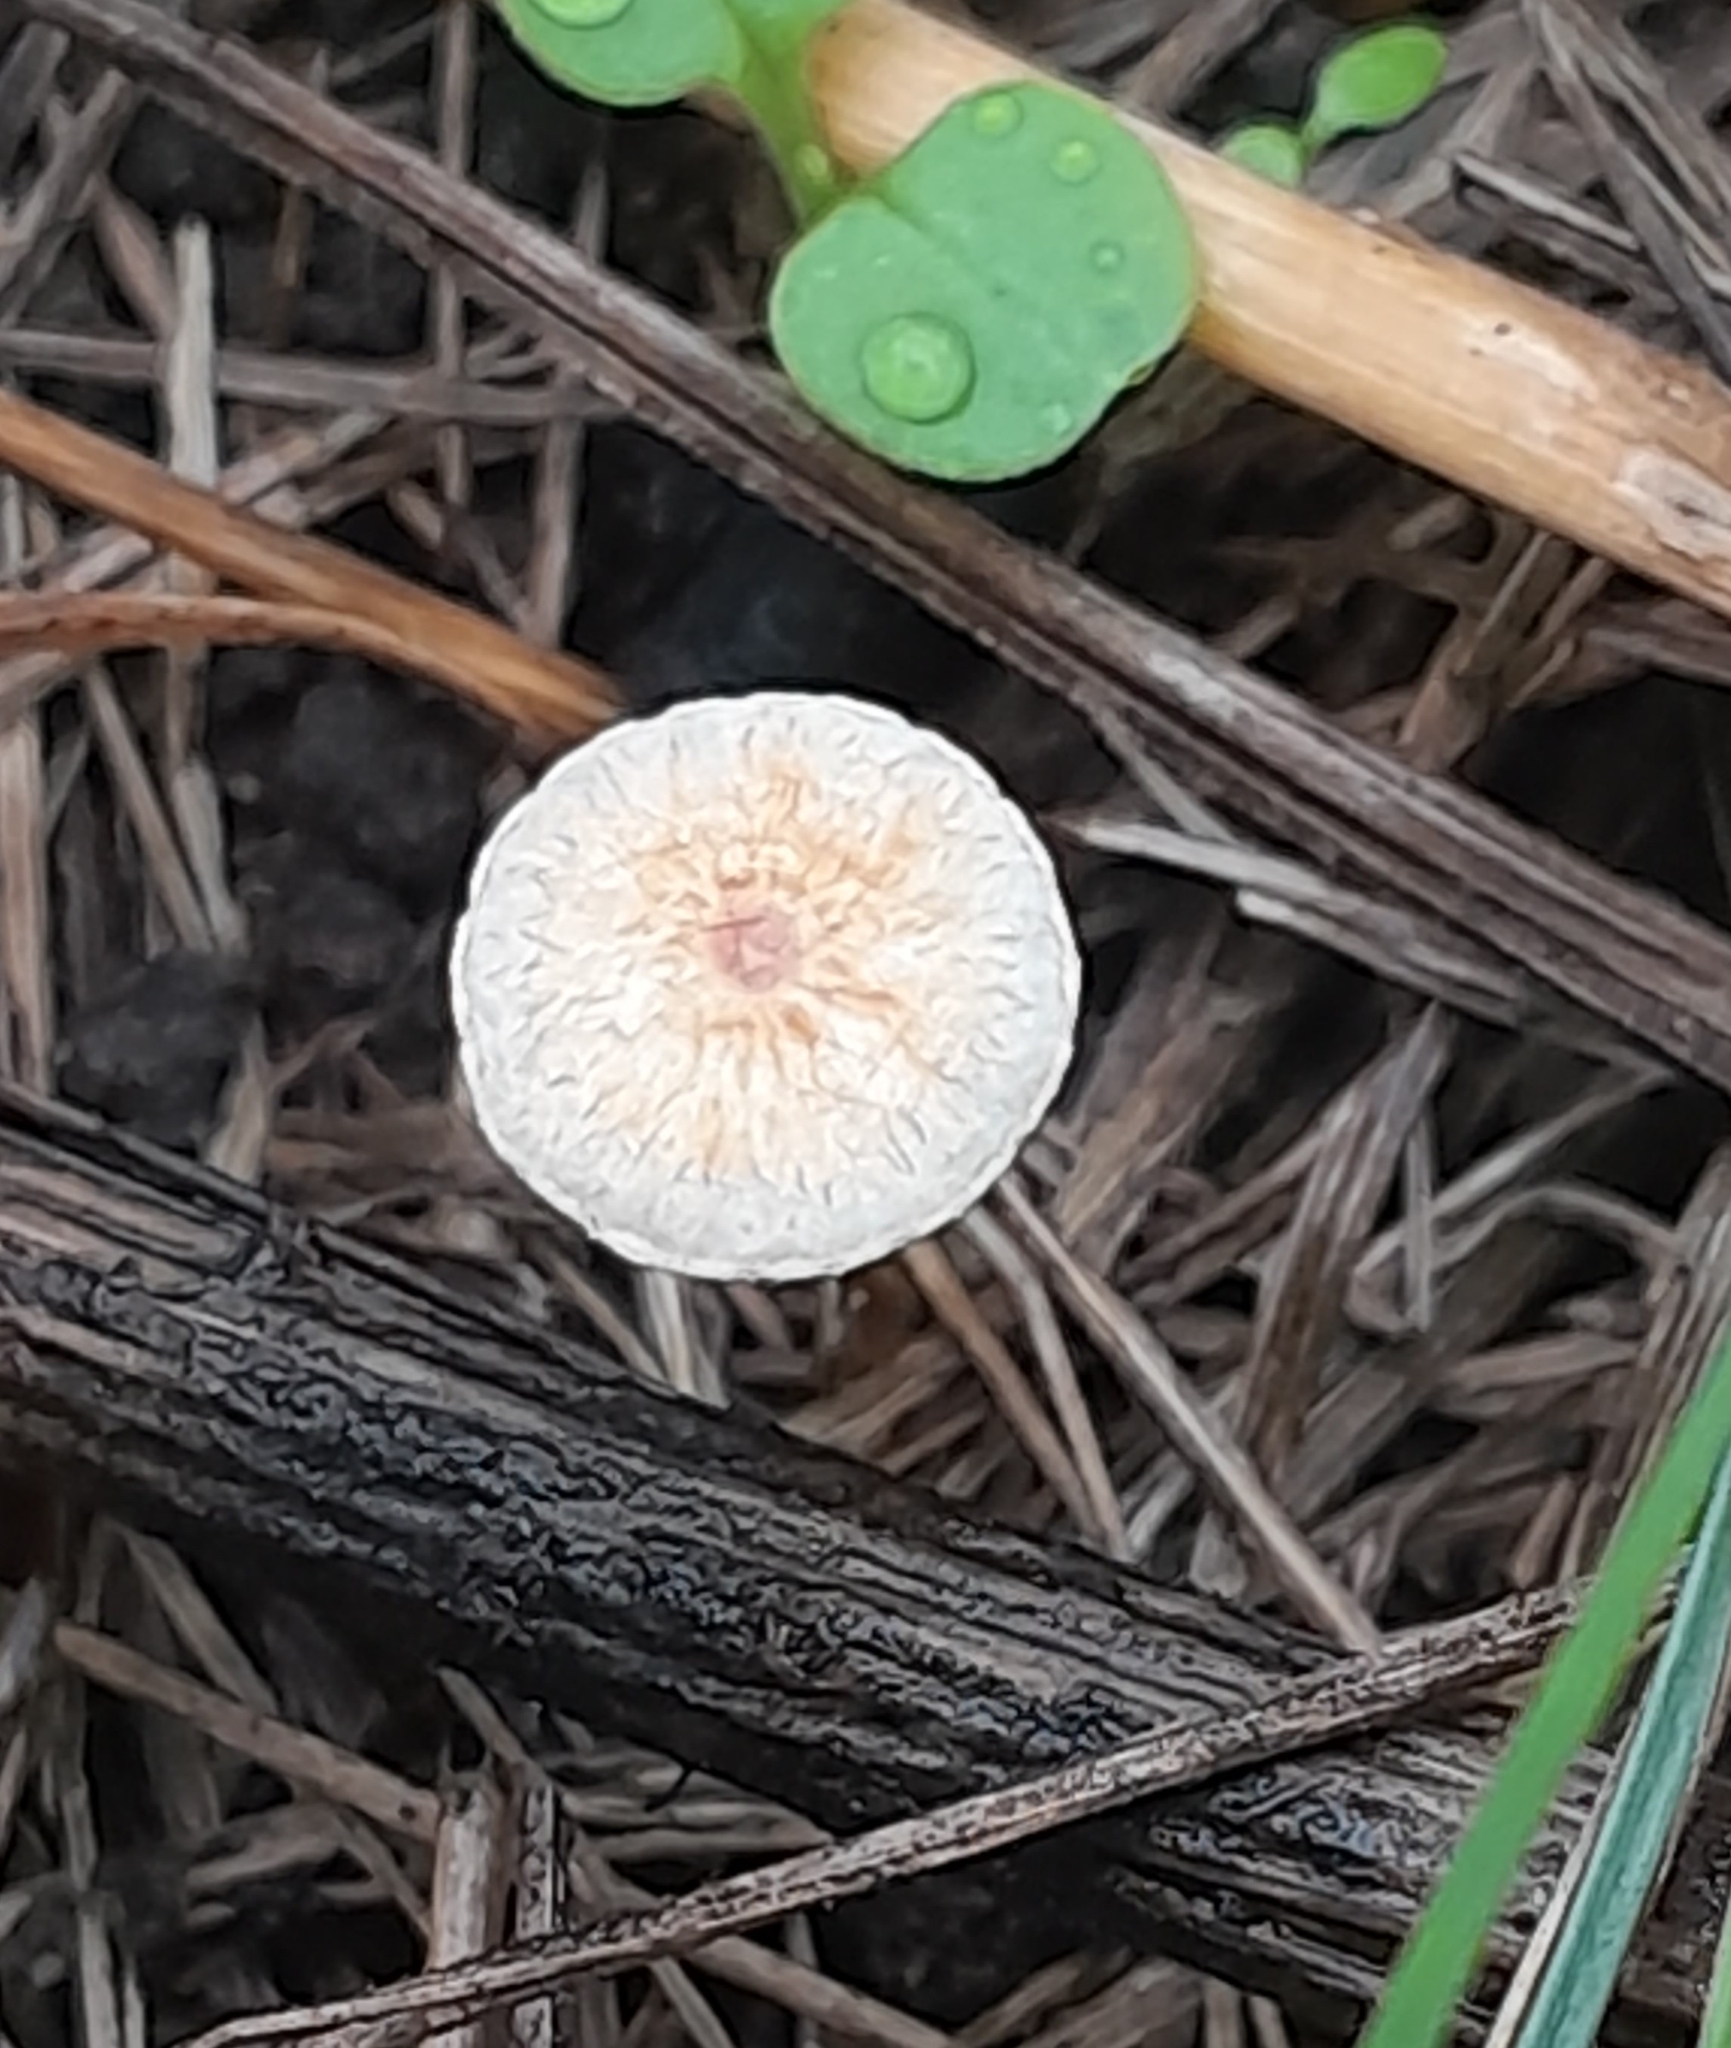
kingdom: Fungi
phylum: Basidiomycota
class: Agaricomycetes
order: Agaricales
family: Marasmiaceae
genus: Crinipellis
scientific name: Crinipellis scabella
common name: Hairy parachute
